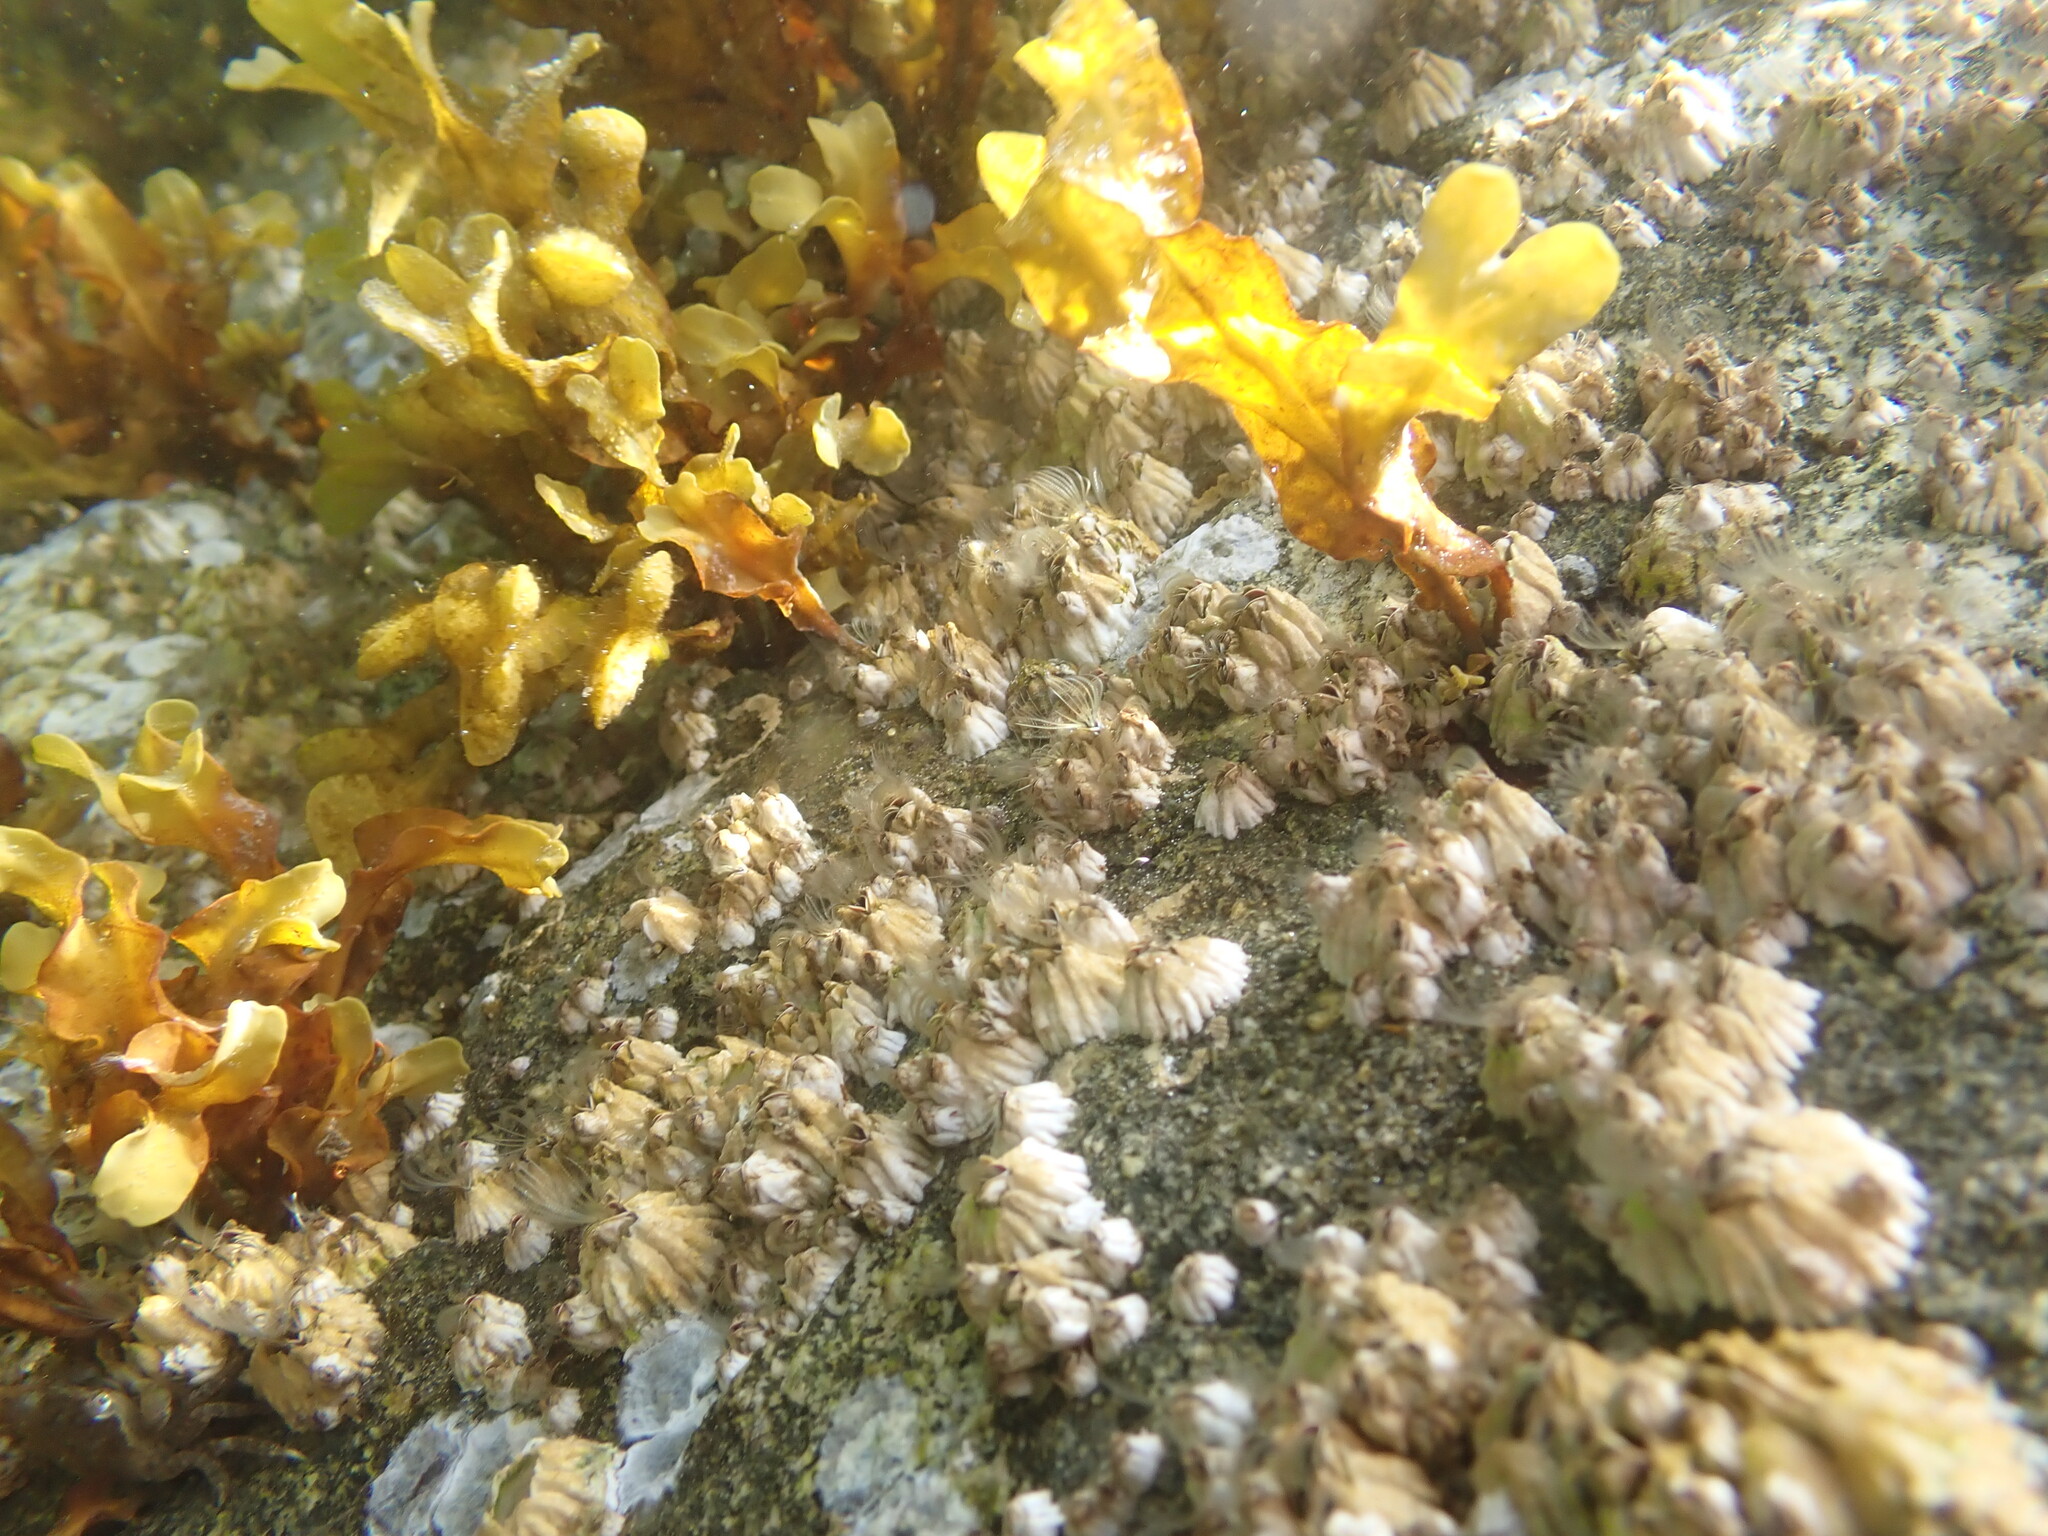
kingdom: Chromista
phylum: Ochrophyta
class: Phaeophyceae
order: Fucales
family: Fucaceae
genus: Fucus
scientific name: Fucus distichus
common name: Rockweed
